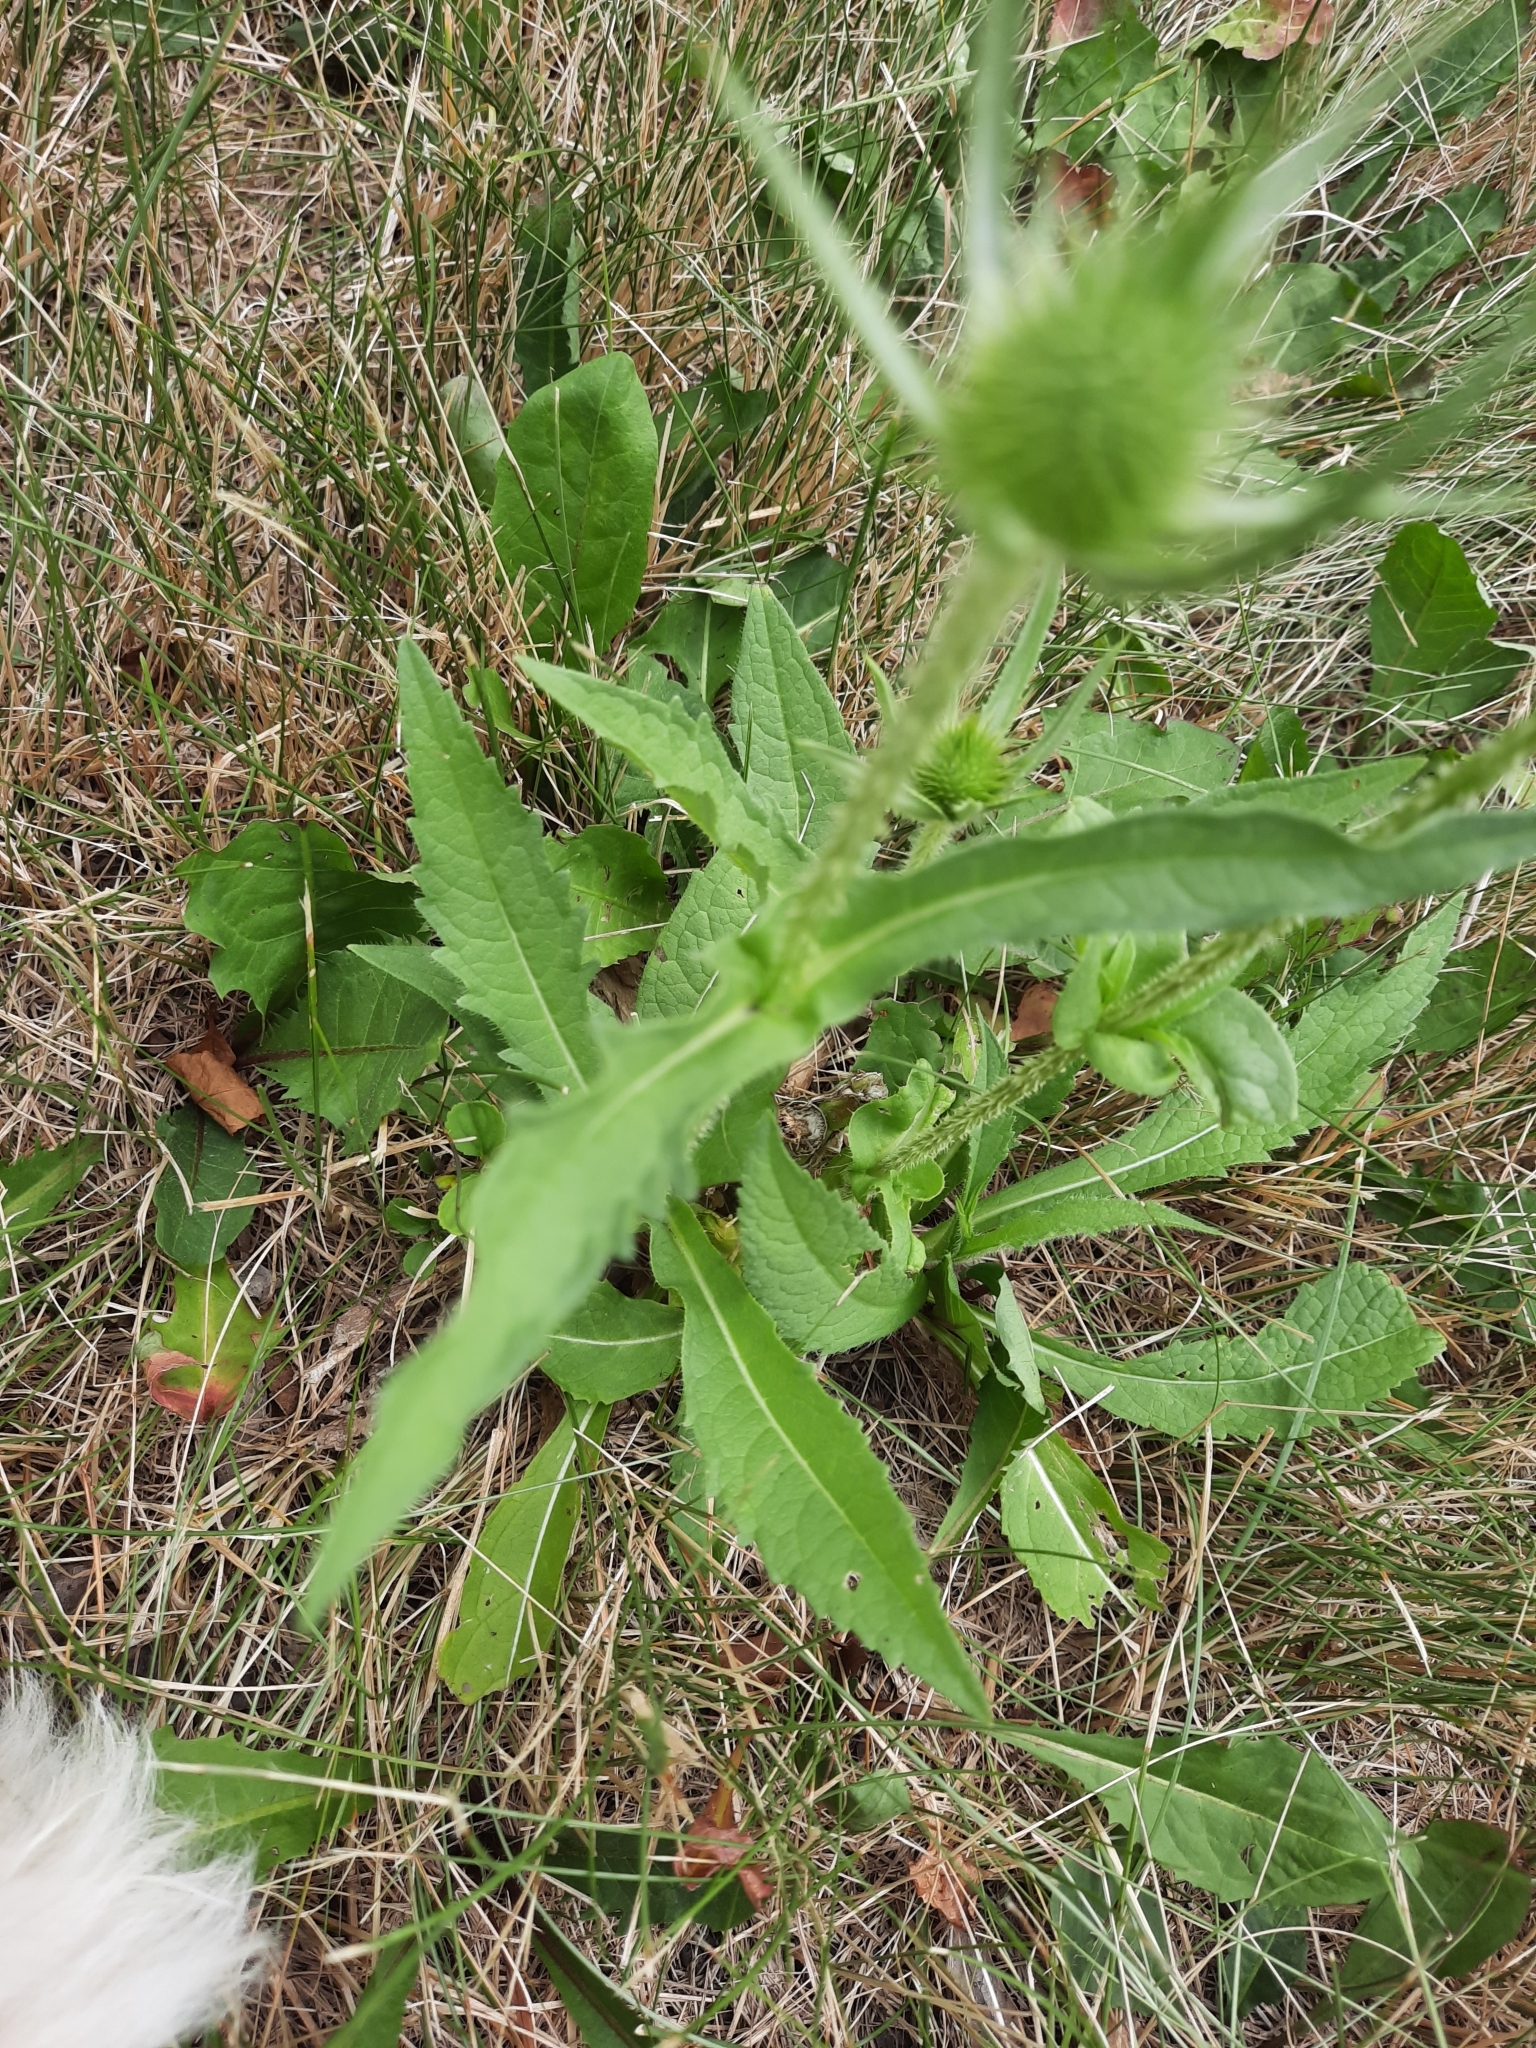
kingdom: Plantae
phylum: Tracheophyta
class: Magnoliopsida
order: Dipsacales
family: Caprifoliaceae
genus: Dipsacus
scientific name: Dipsacus laciniatus
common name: Cut-leaved teasel
